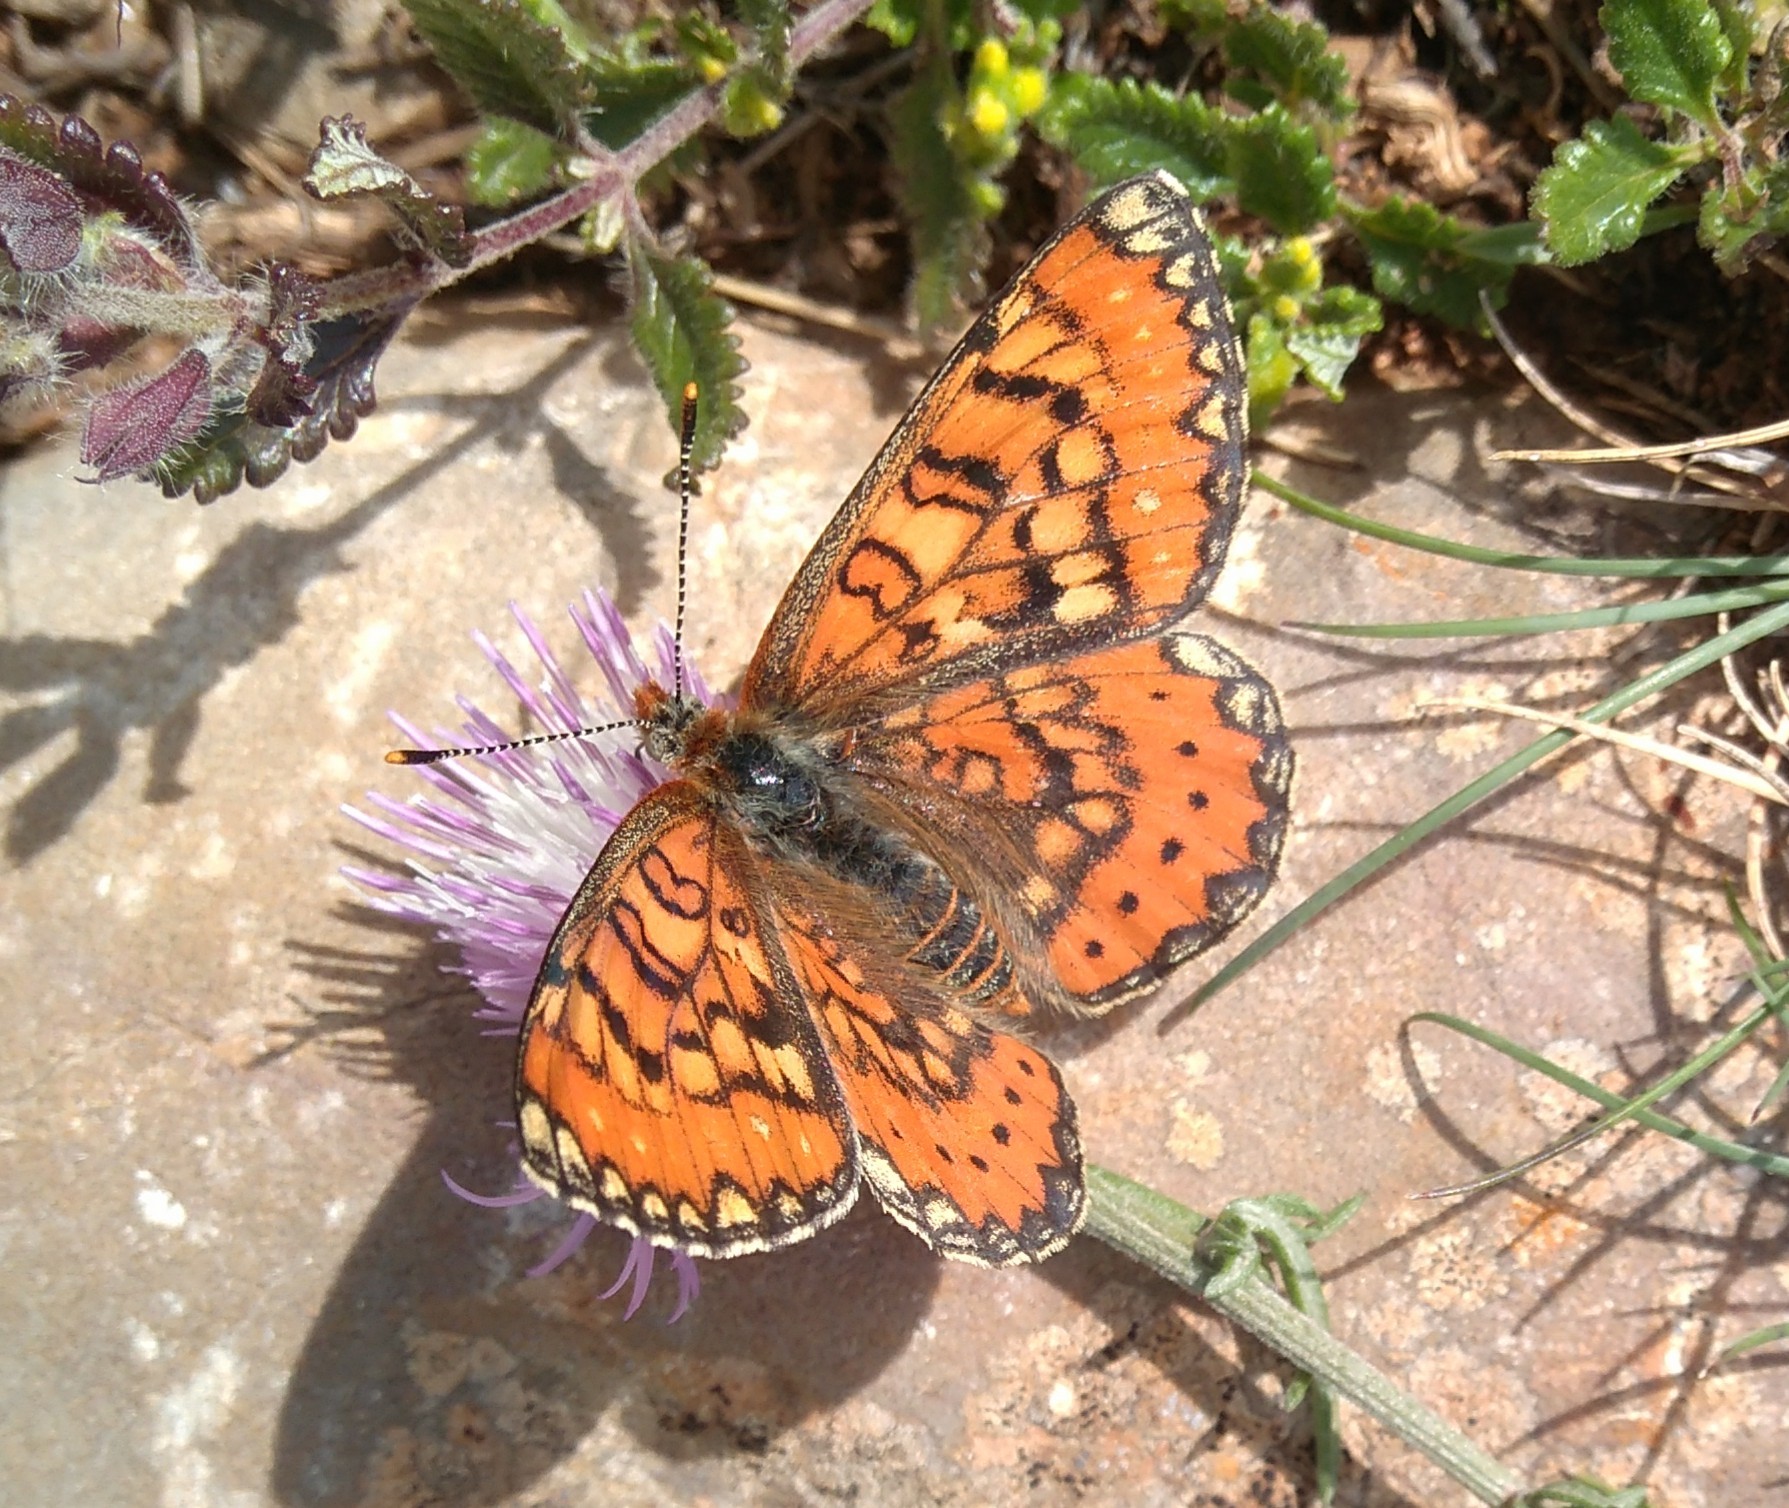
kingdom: Animalia
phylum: Arthropoda
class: Insecta
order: Lepidoptera
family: Nymphalidae
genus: Euphydryas
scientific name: Euphydryas desfontainii
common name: Spanish fritillary
